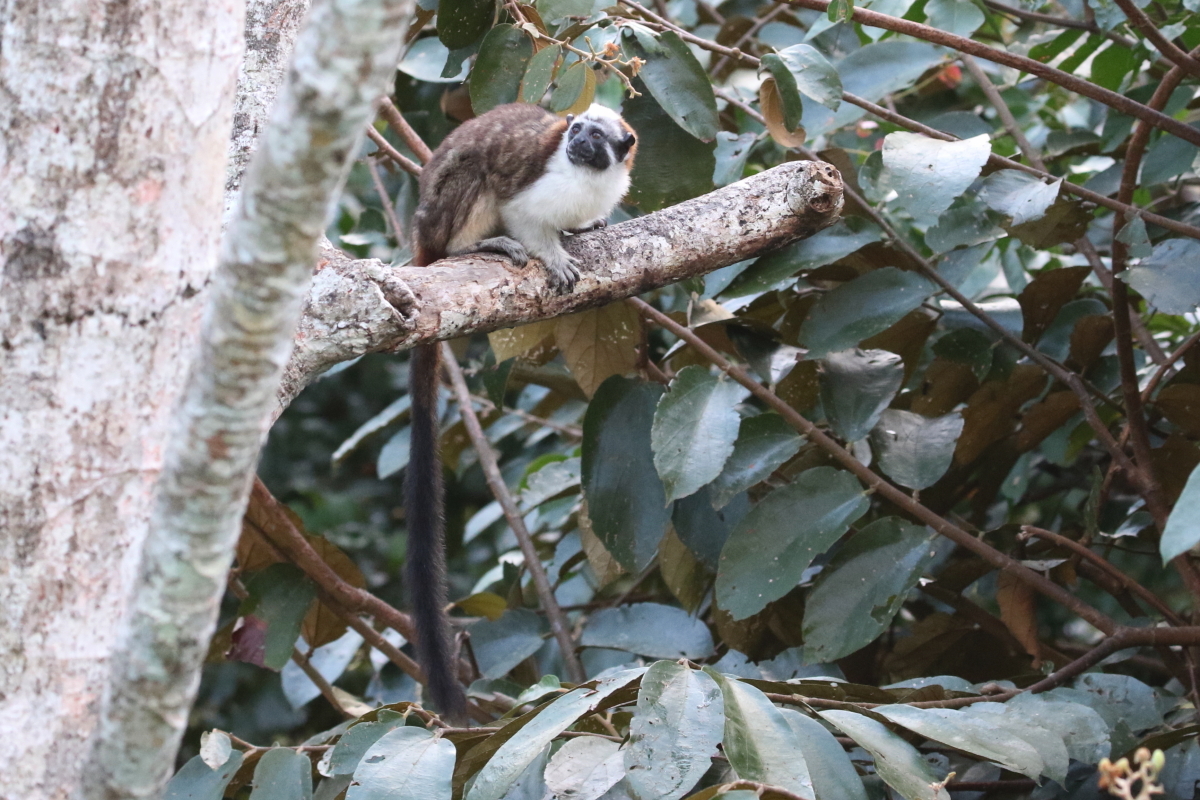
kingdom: Animalia
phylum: Chordata
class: Mammalia
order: Primates
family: Callitrichidae
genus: Saguinus
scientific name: Saguinus geoffroyi
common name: Geoffroy s tamarin
